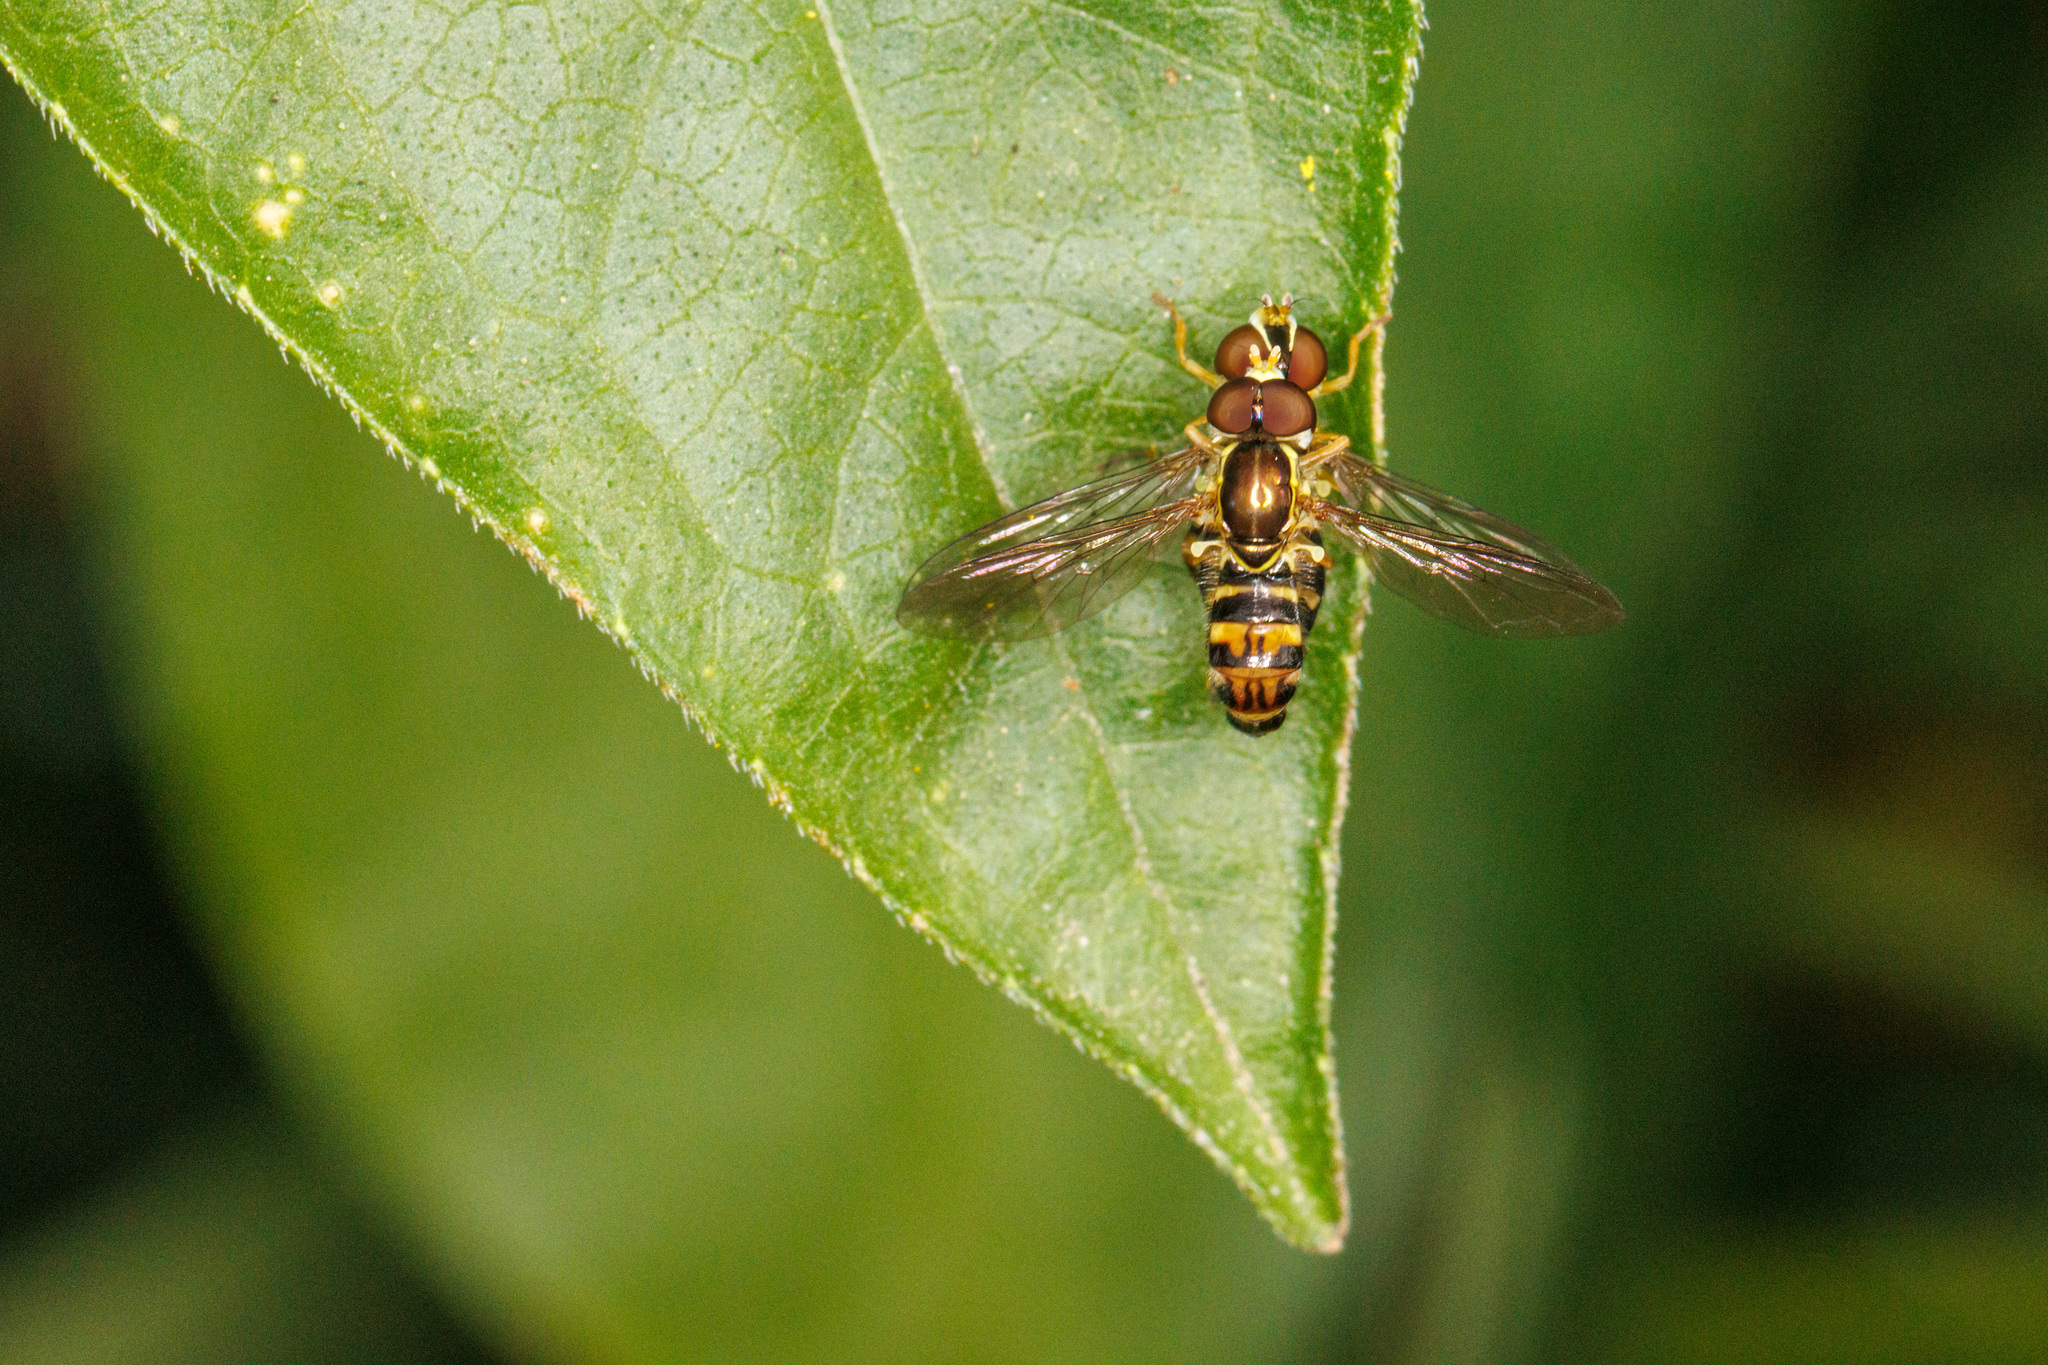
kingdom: Animalia
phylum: Arthropoda
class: Insecta
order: Diptera
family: Syrphidae
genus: Toxomerus
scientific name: Toxomerus occidentalis
